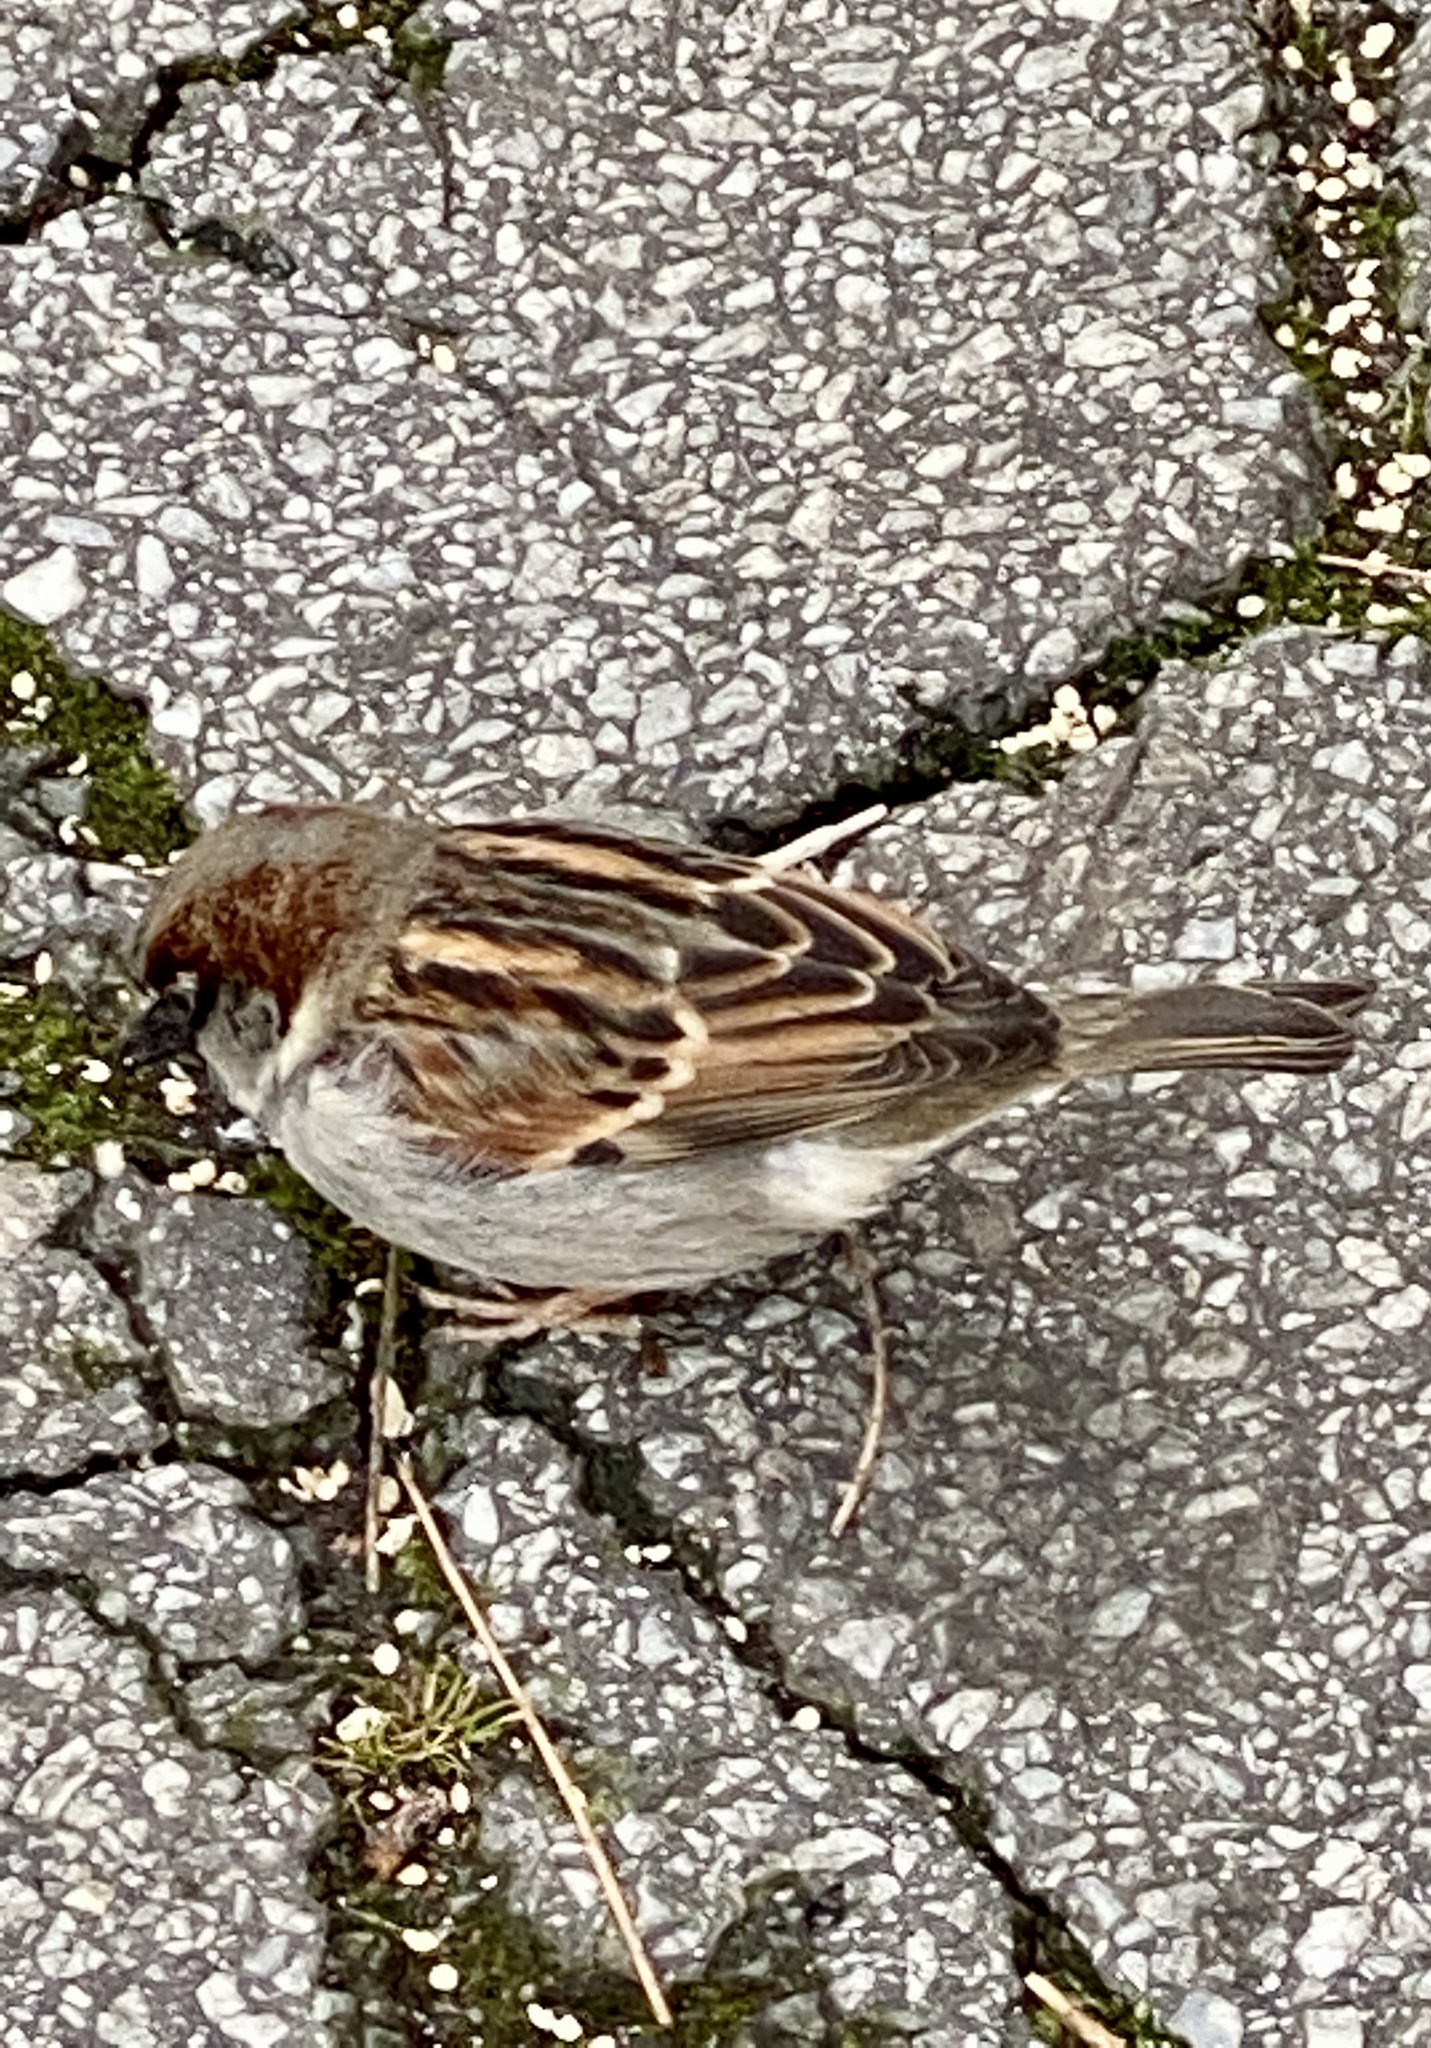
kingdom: Animalia
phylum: Chordata
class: Aves
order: Passeriformes
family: Passeridae
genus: Passer
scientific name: Passer domesticus
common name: House sparrow
